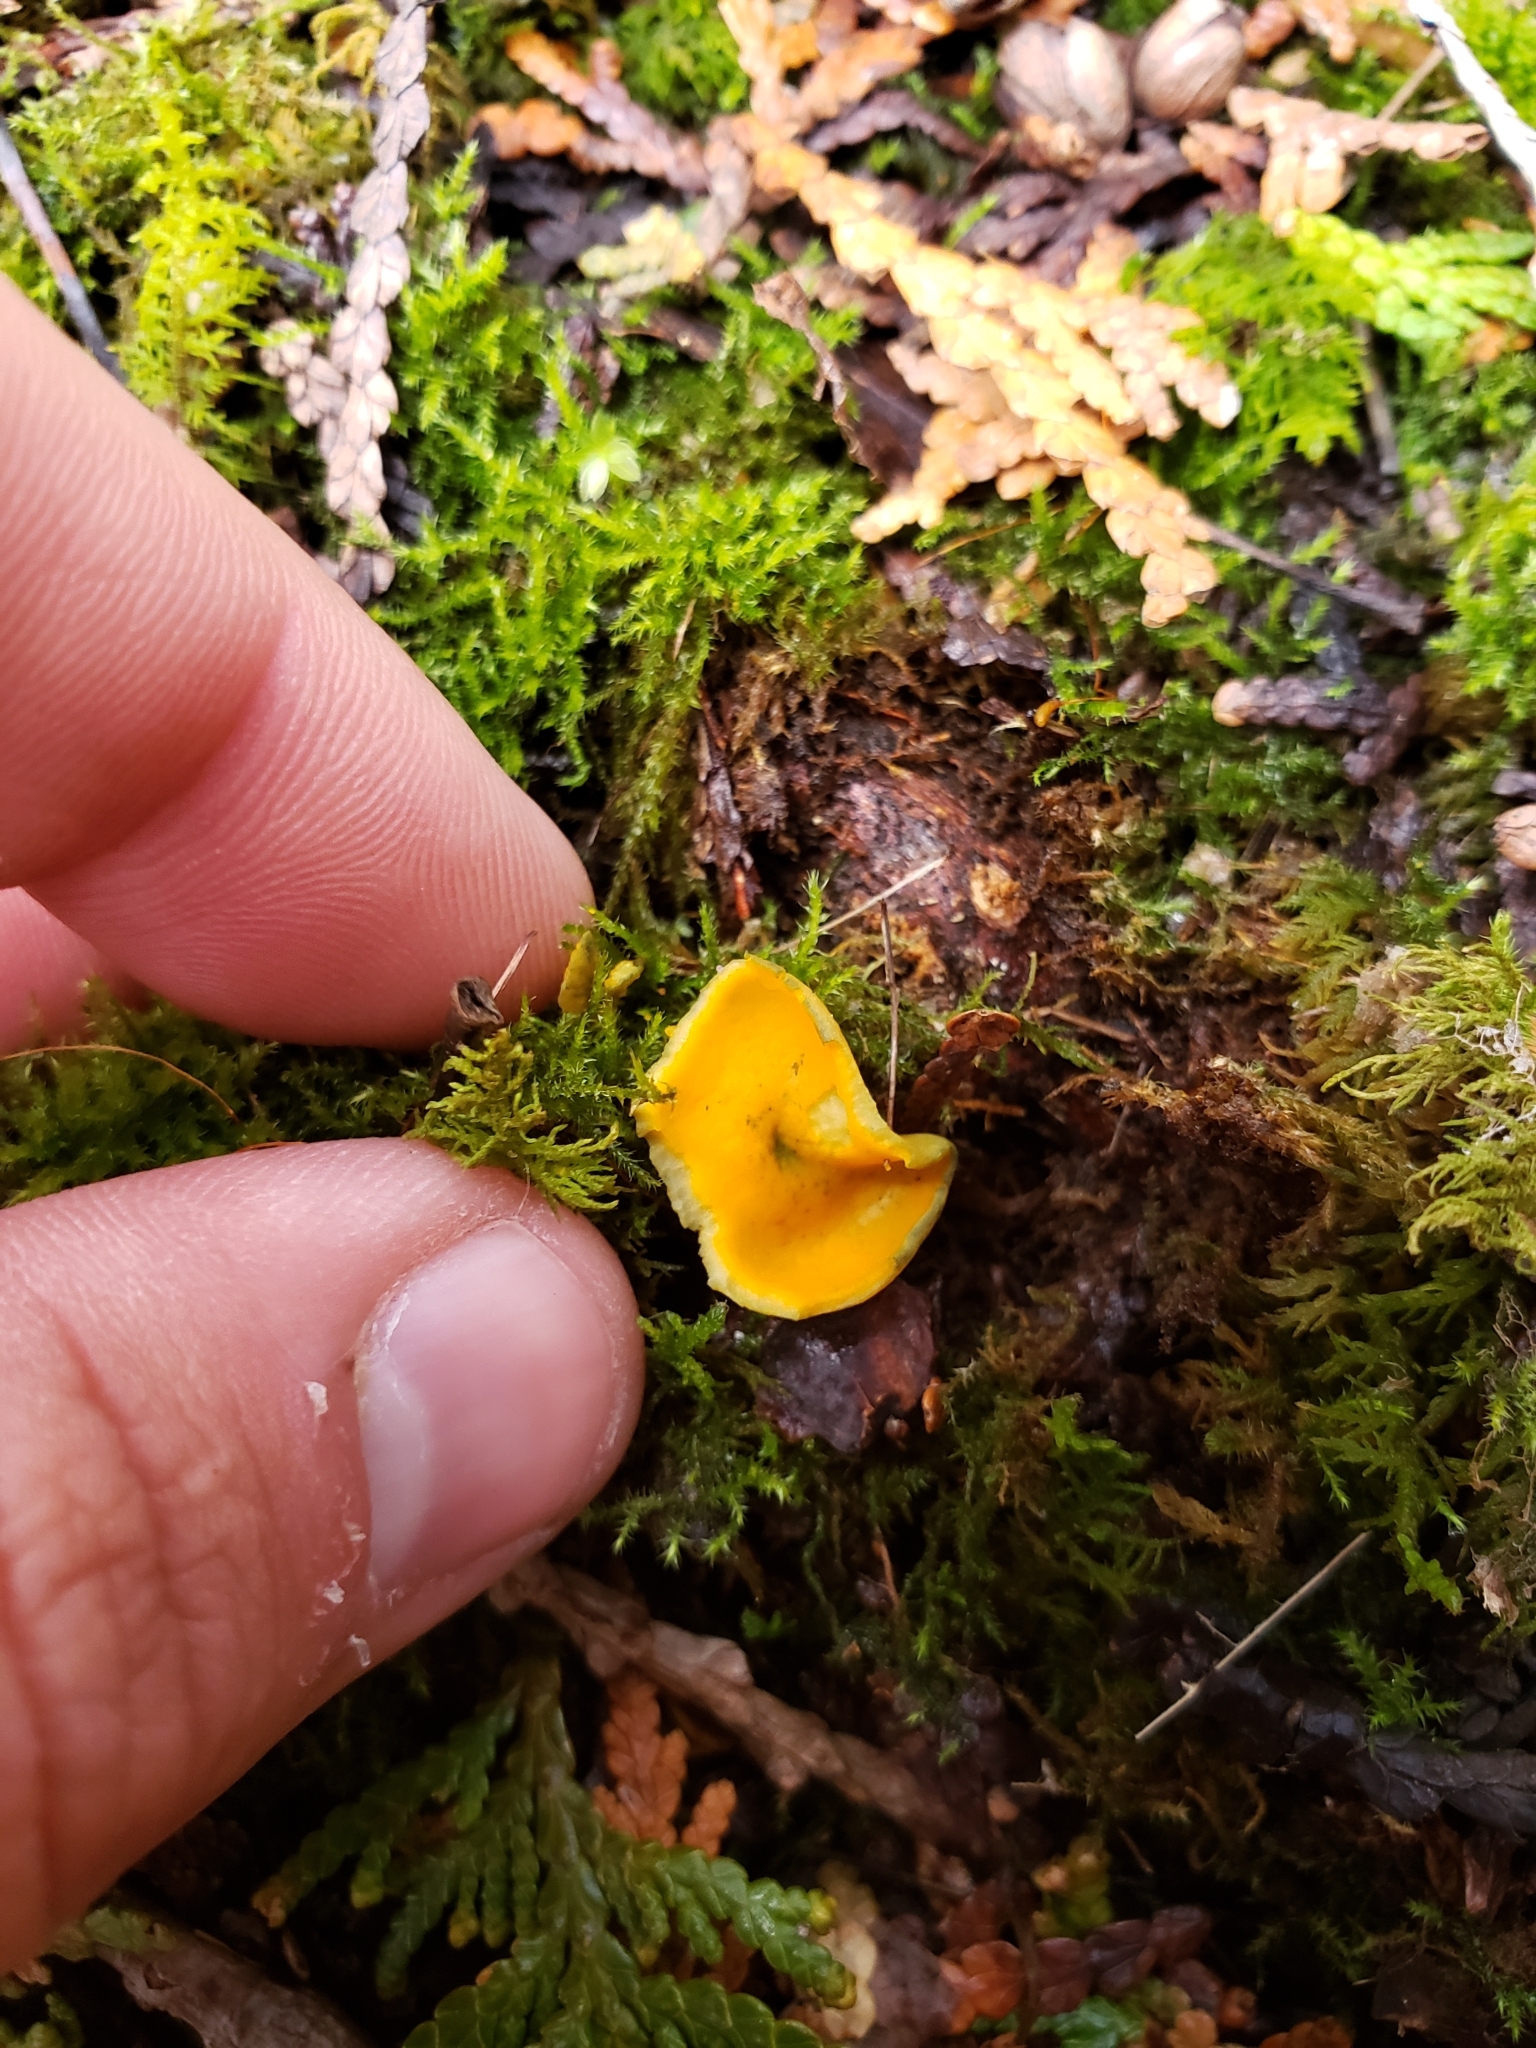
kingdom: Fungi
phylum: Ascomycota
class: Pezizomycetes
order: Pezizales
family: Caloscyphaceae
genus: Caloscypha
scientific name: Caloscypha fulgens
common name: Golden cup
